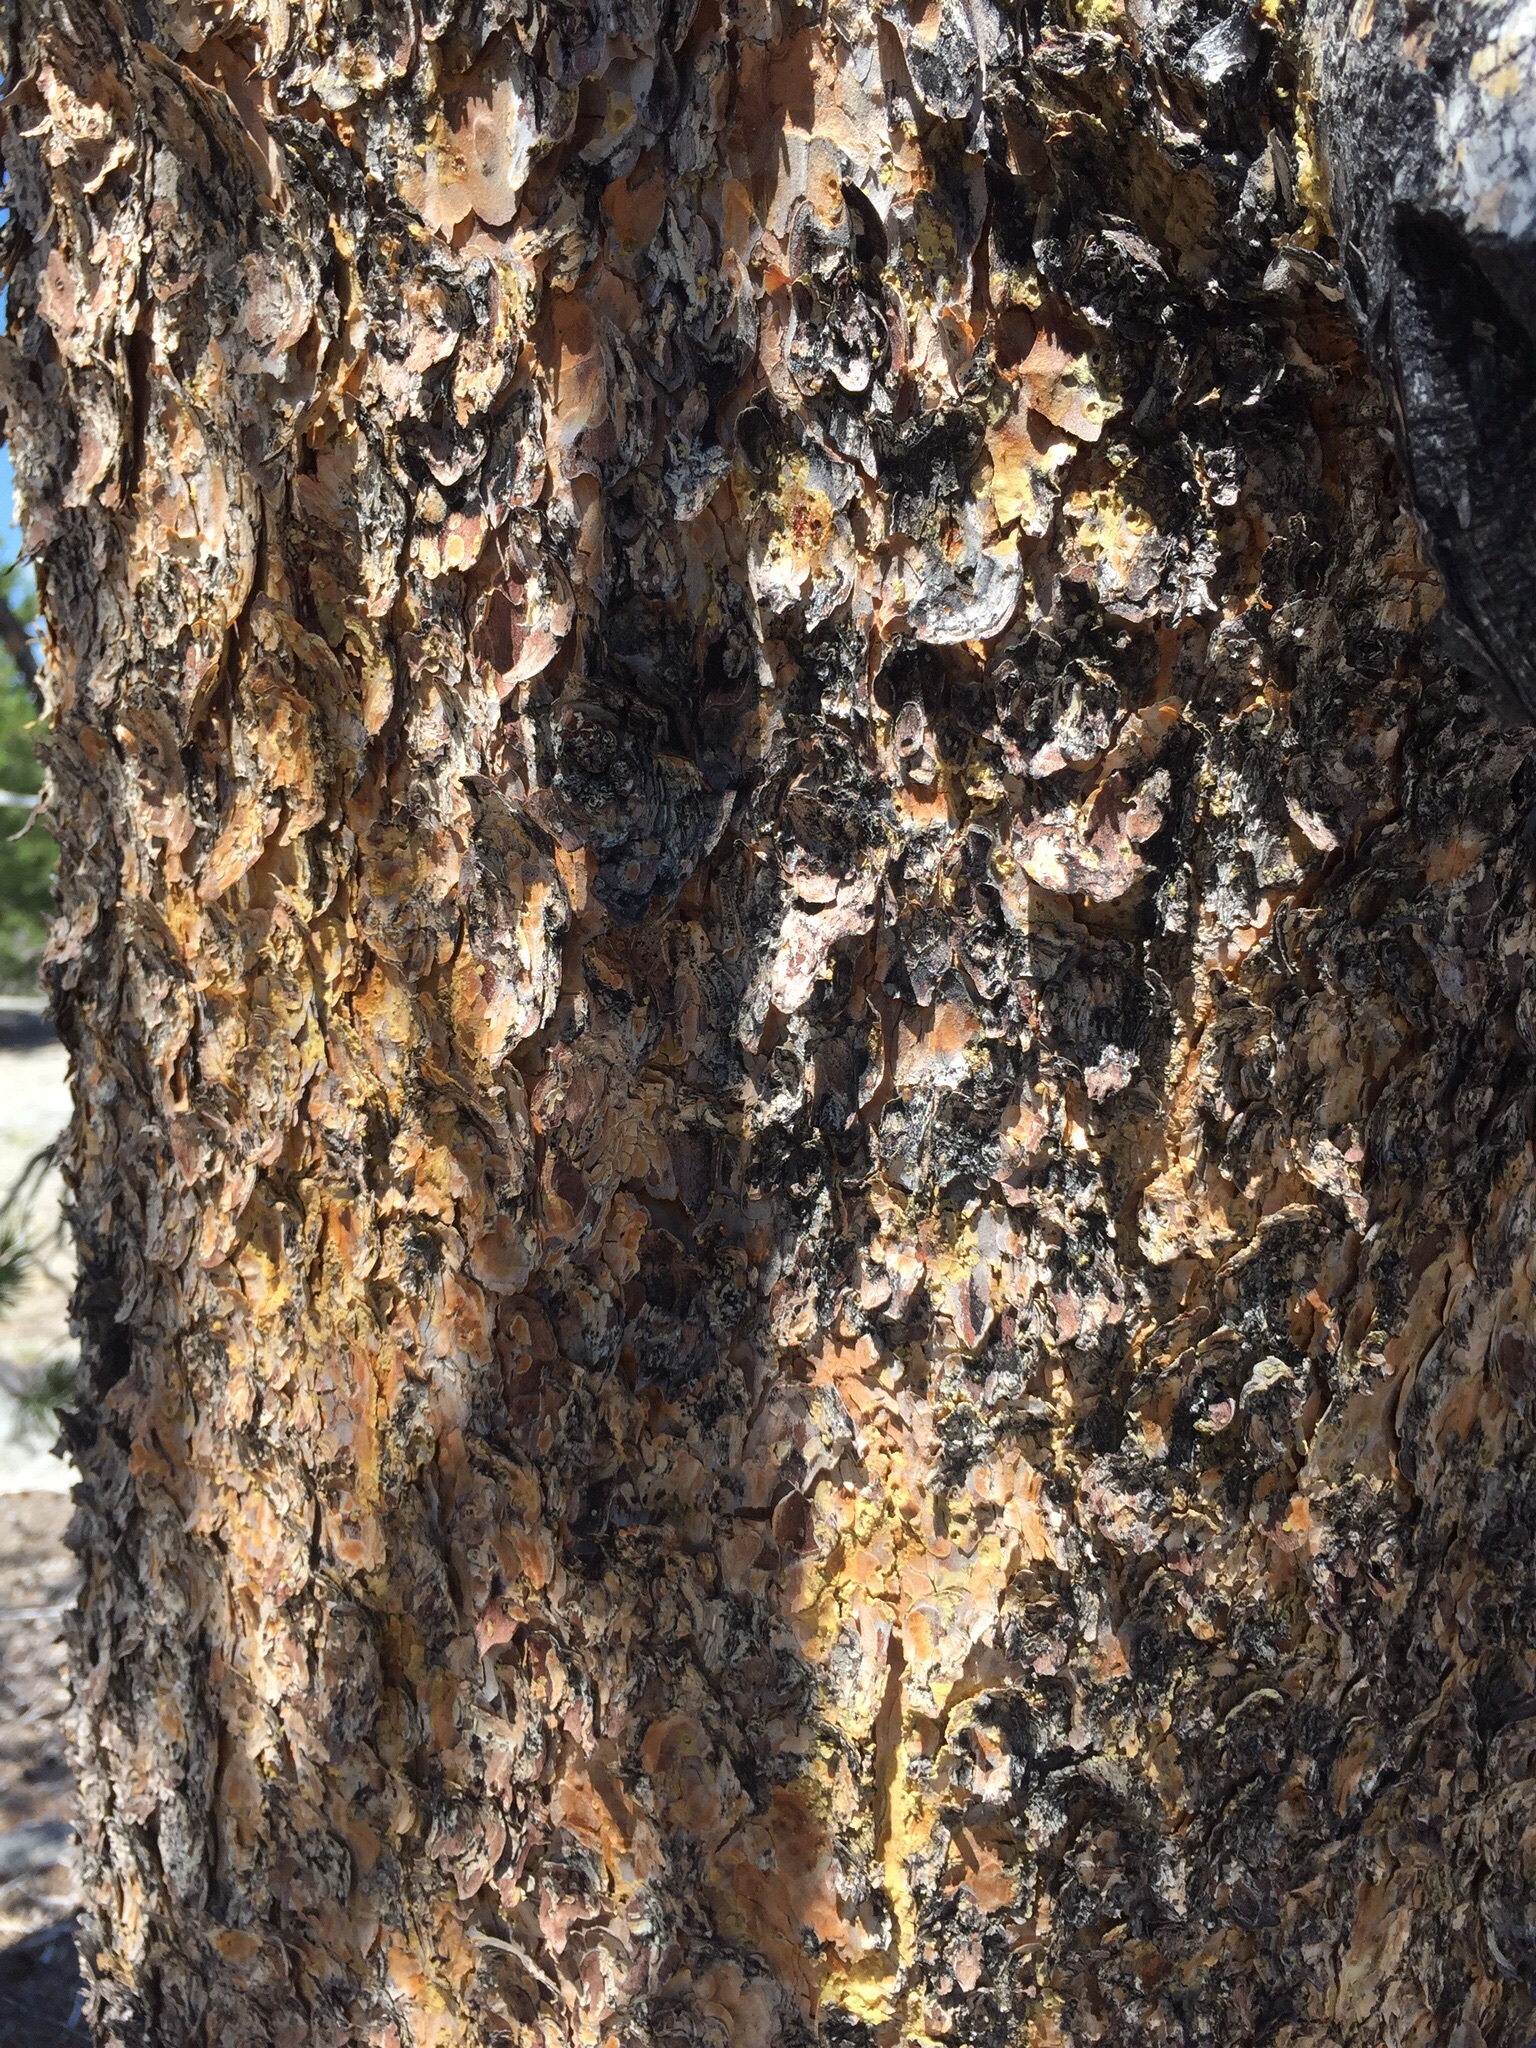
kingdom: Plantae
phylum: Tracheophyta
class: Pinopsida
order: Pinales
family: Pinaceae
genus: Pinus
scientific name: Pinus contorta
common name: Lodgepole pine
